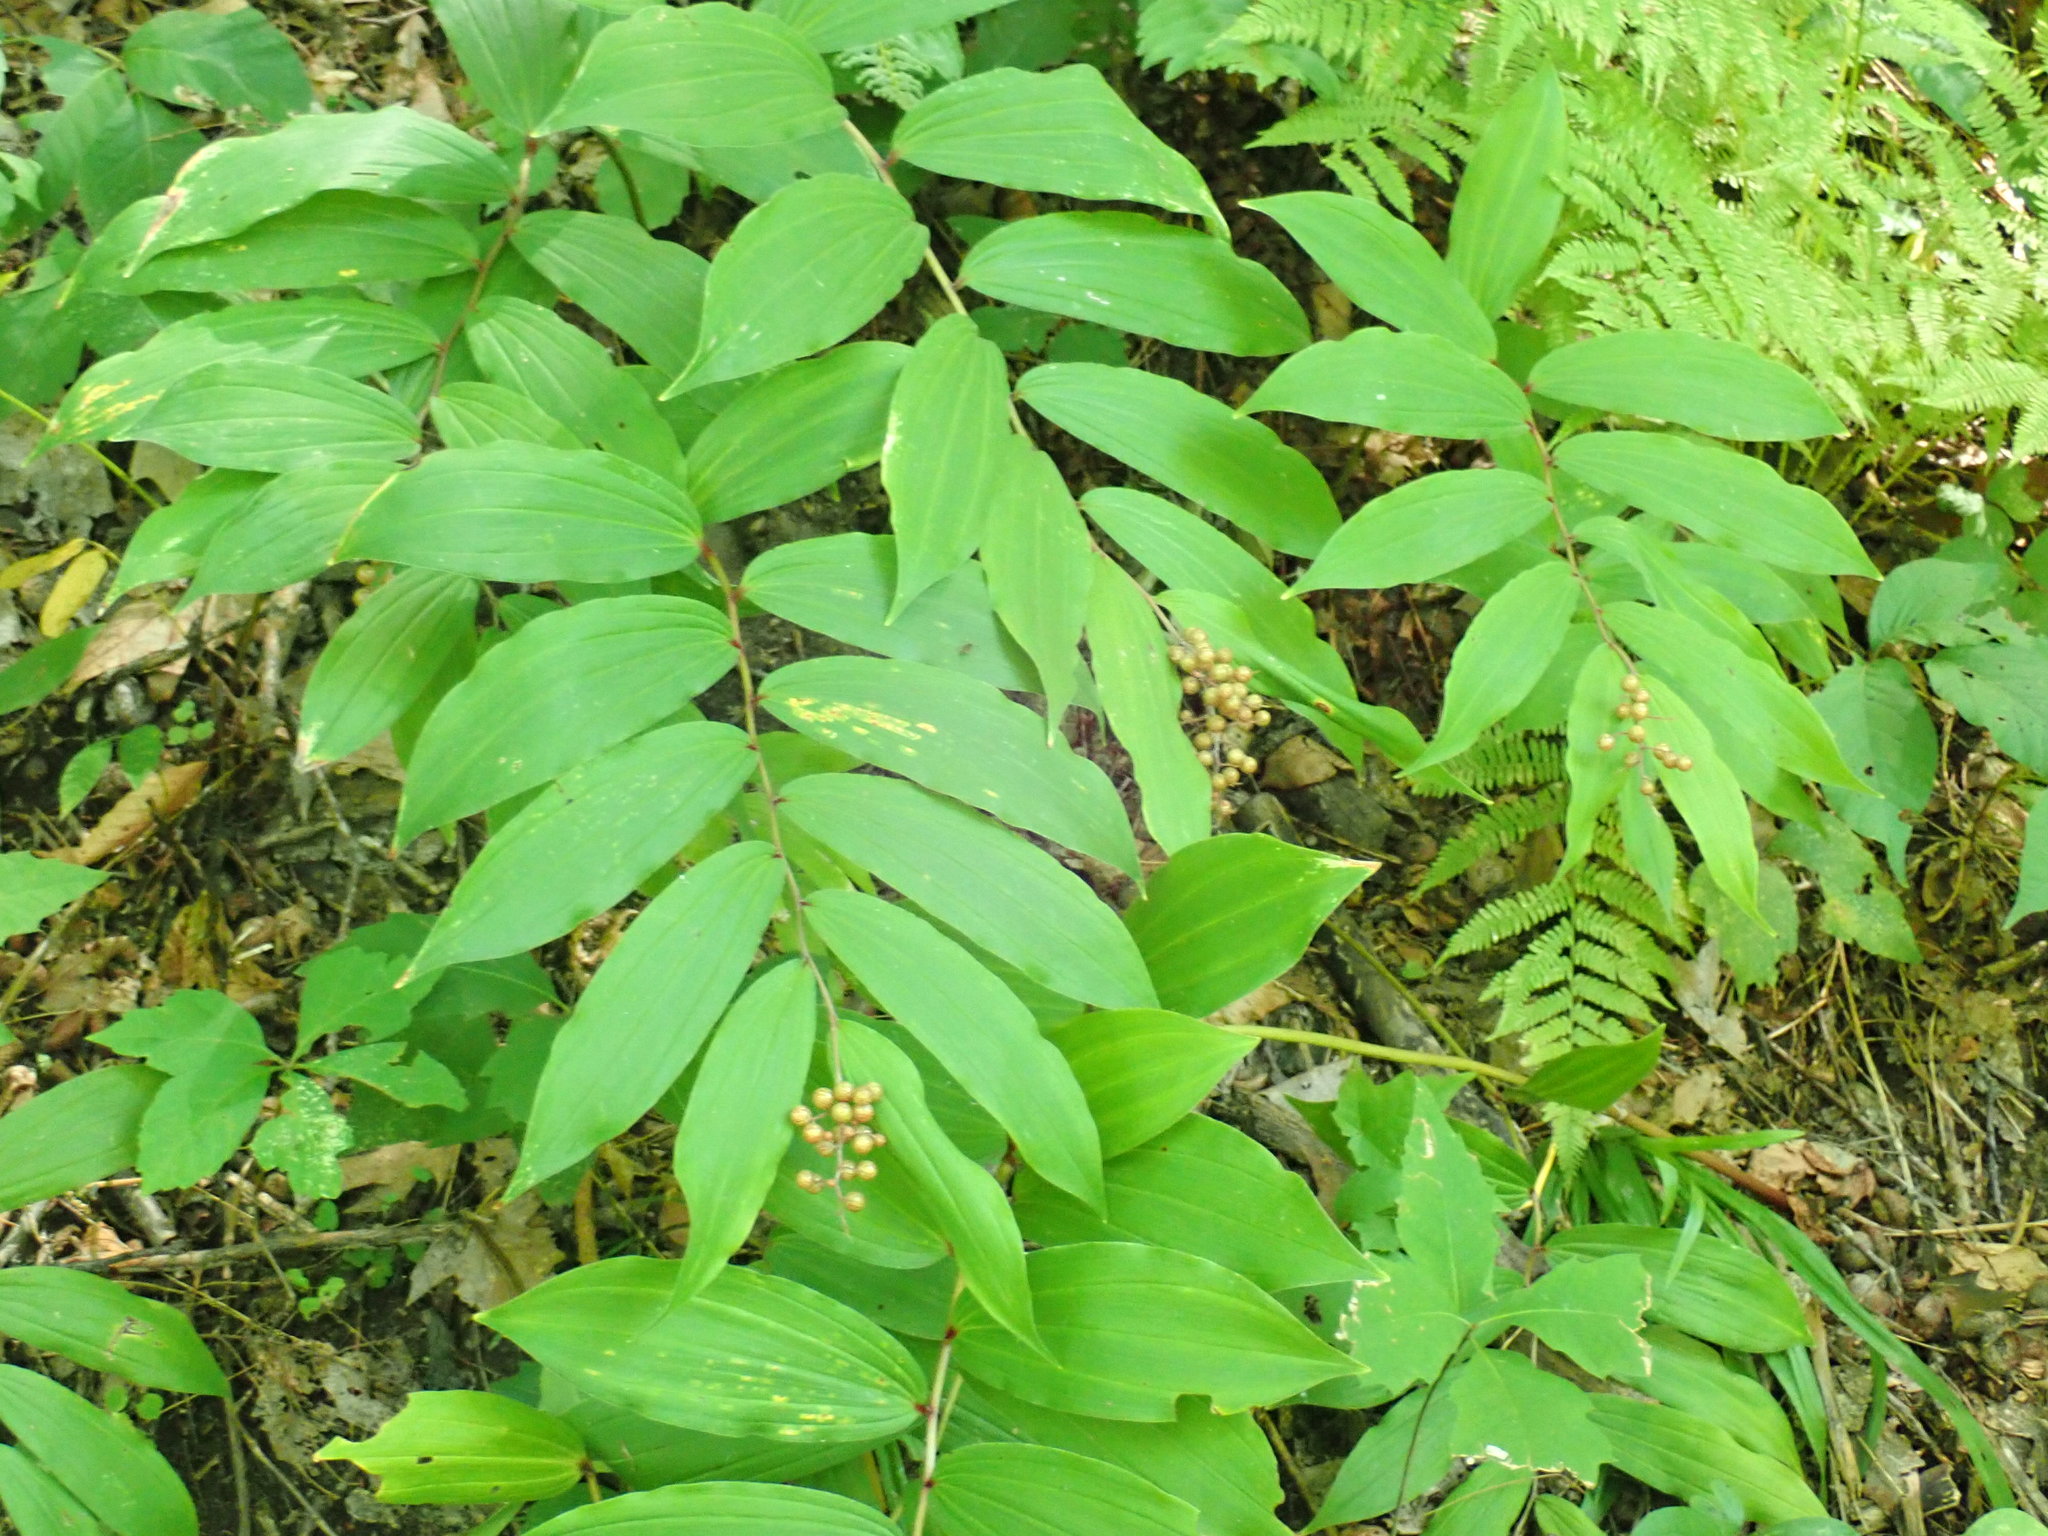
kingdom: Plantae
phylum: Tracheophyta
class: Liliopsida
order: Asparagales
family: Asparagaceae
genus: Maianthemum
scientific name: Maianthemum racemosum
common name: False spikenard
